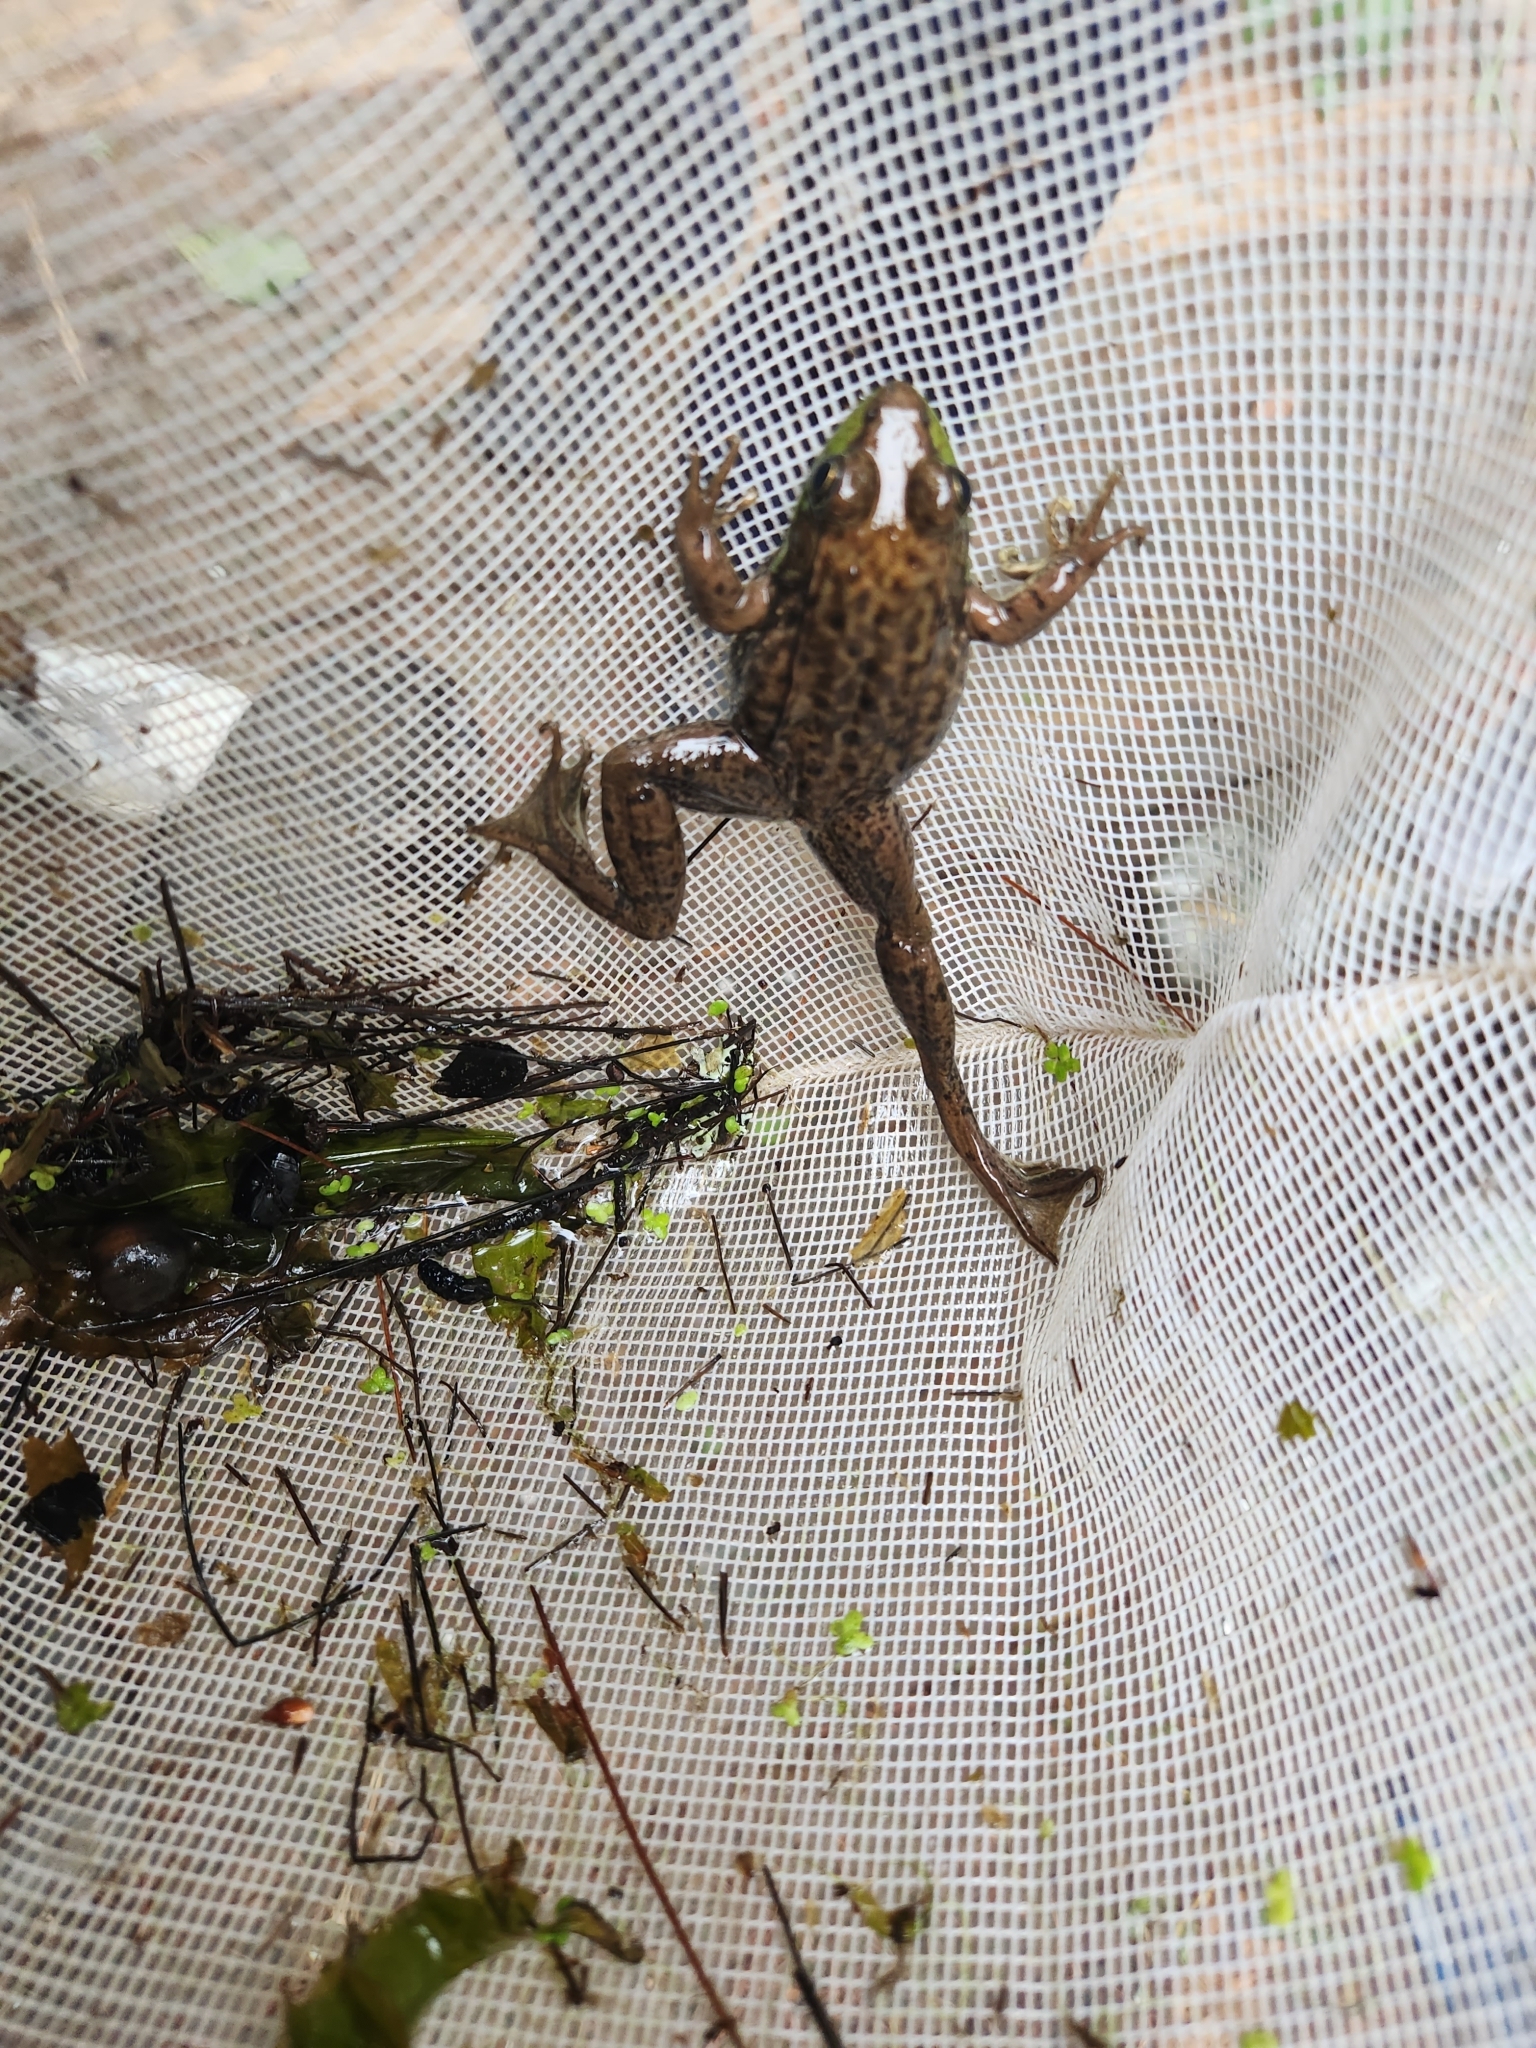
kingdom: Animalia
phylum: Chordata
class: Amphibia
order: Anura
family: Ranidae
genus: Lithobates
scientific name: Lithobates clamitans
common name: Green frog
